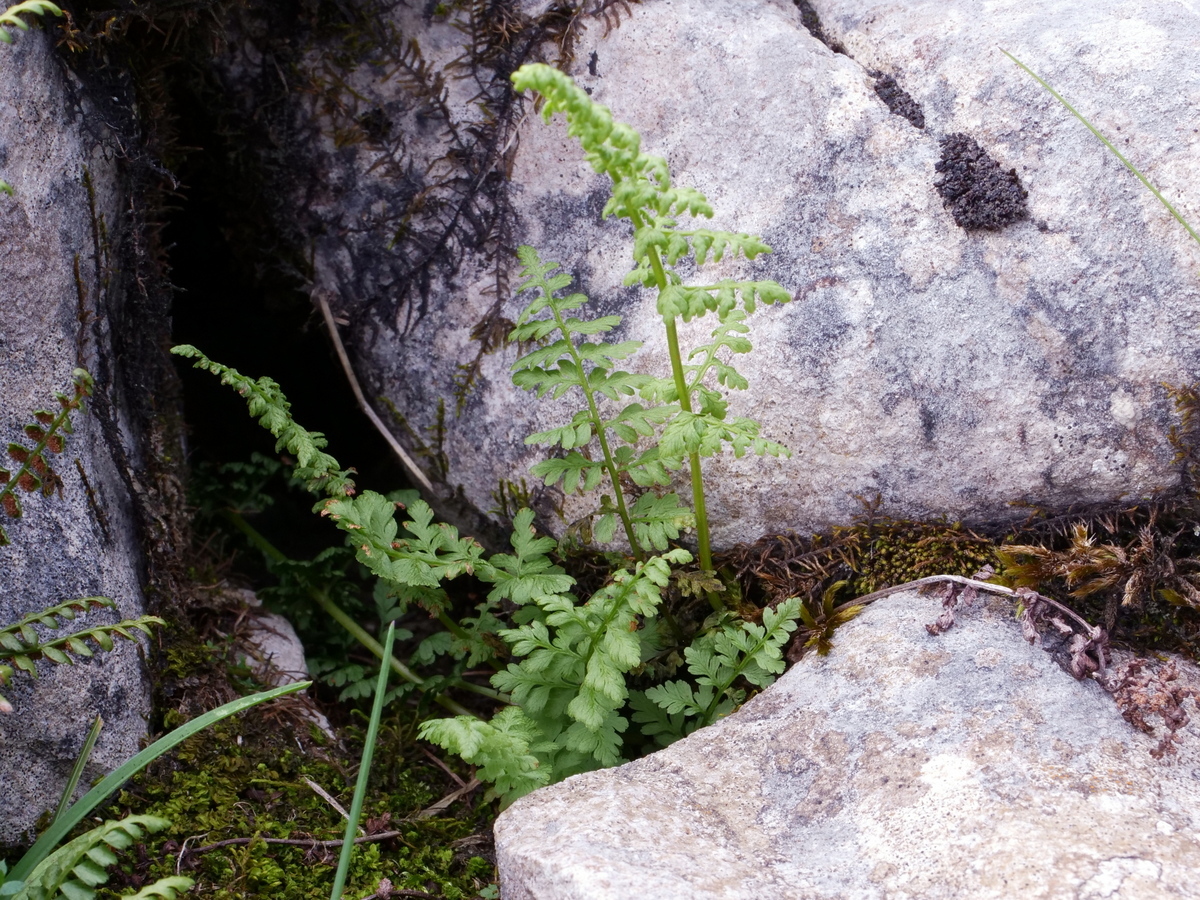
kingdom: Plantae
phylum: Tracheophyta
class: Polypodiopsida
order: Polypodiales
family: Cystopteridaceae
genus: Cystopteris
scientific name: Cystopteris fragilis
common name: Brittle bladder fern
